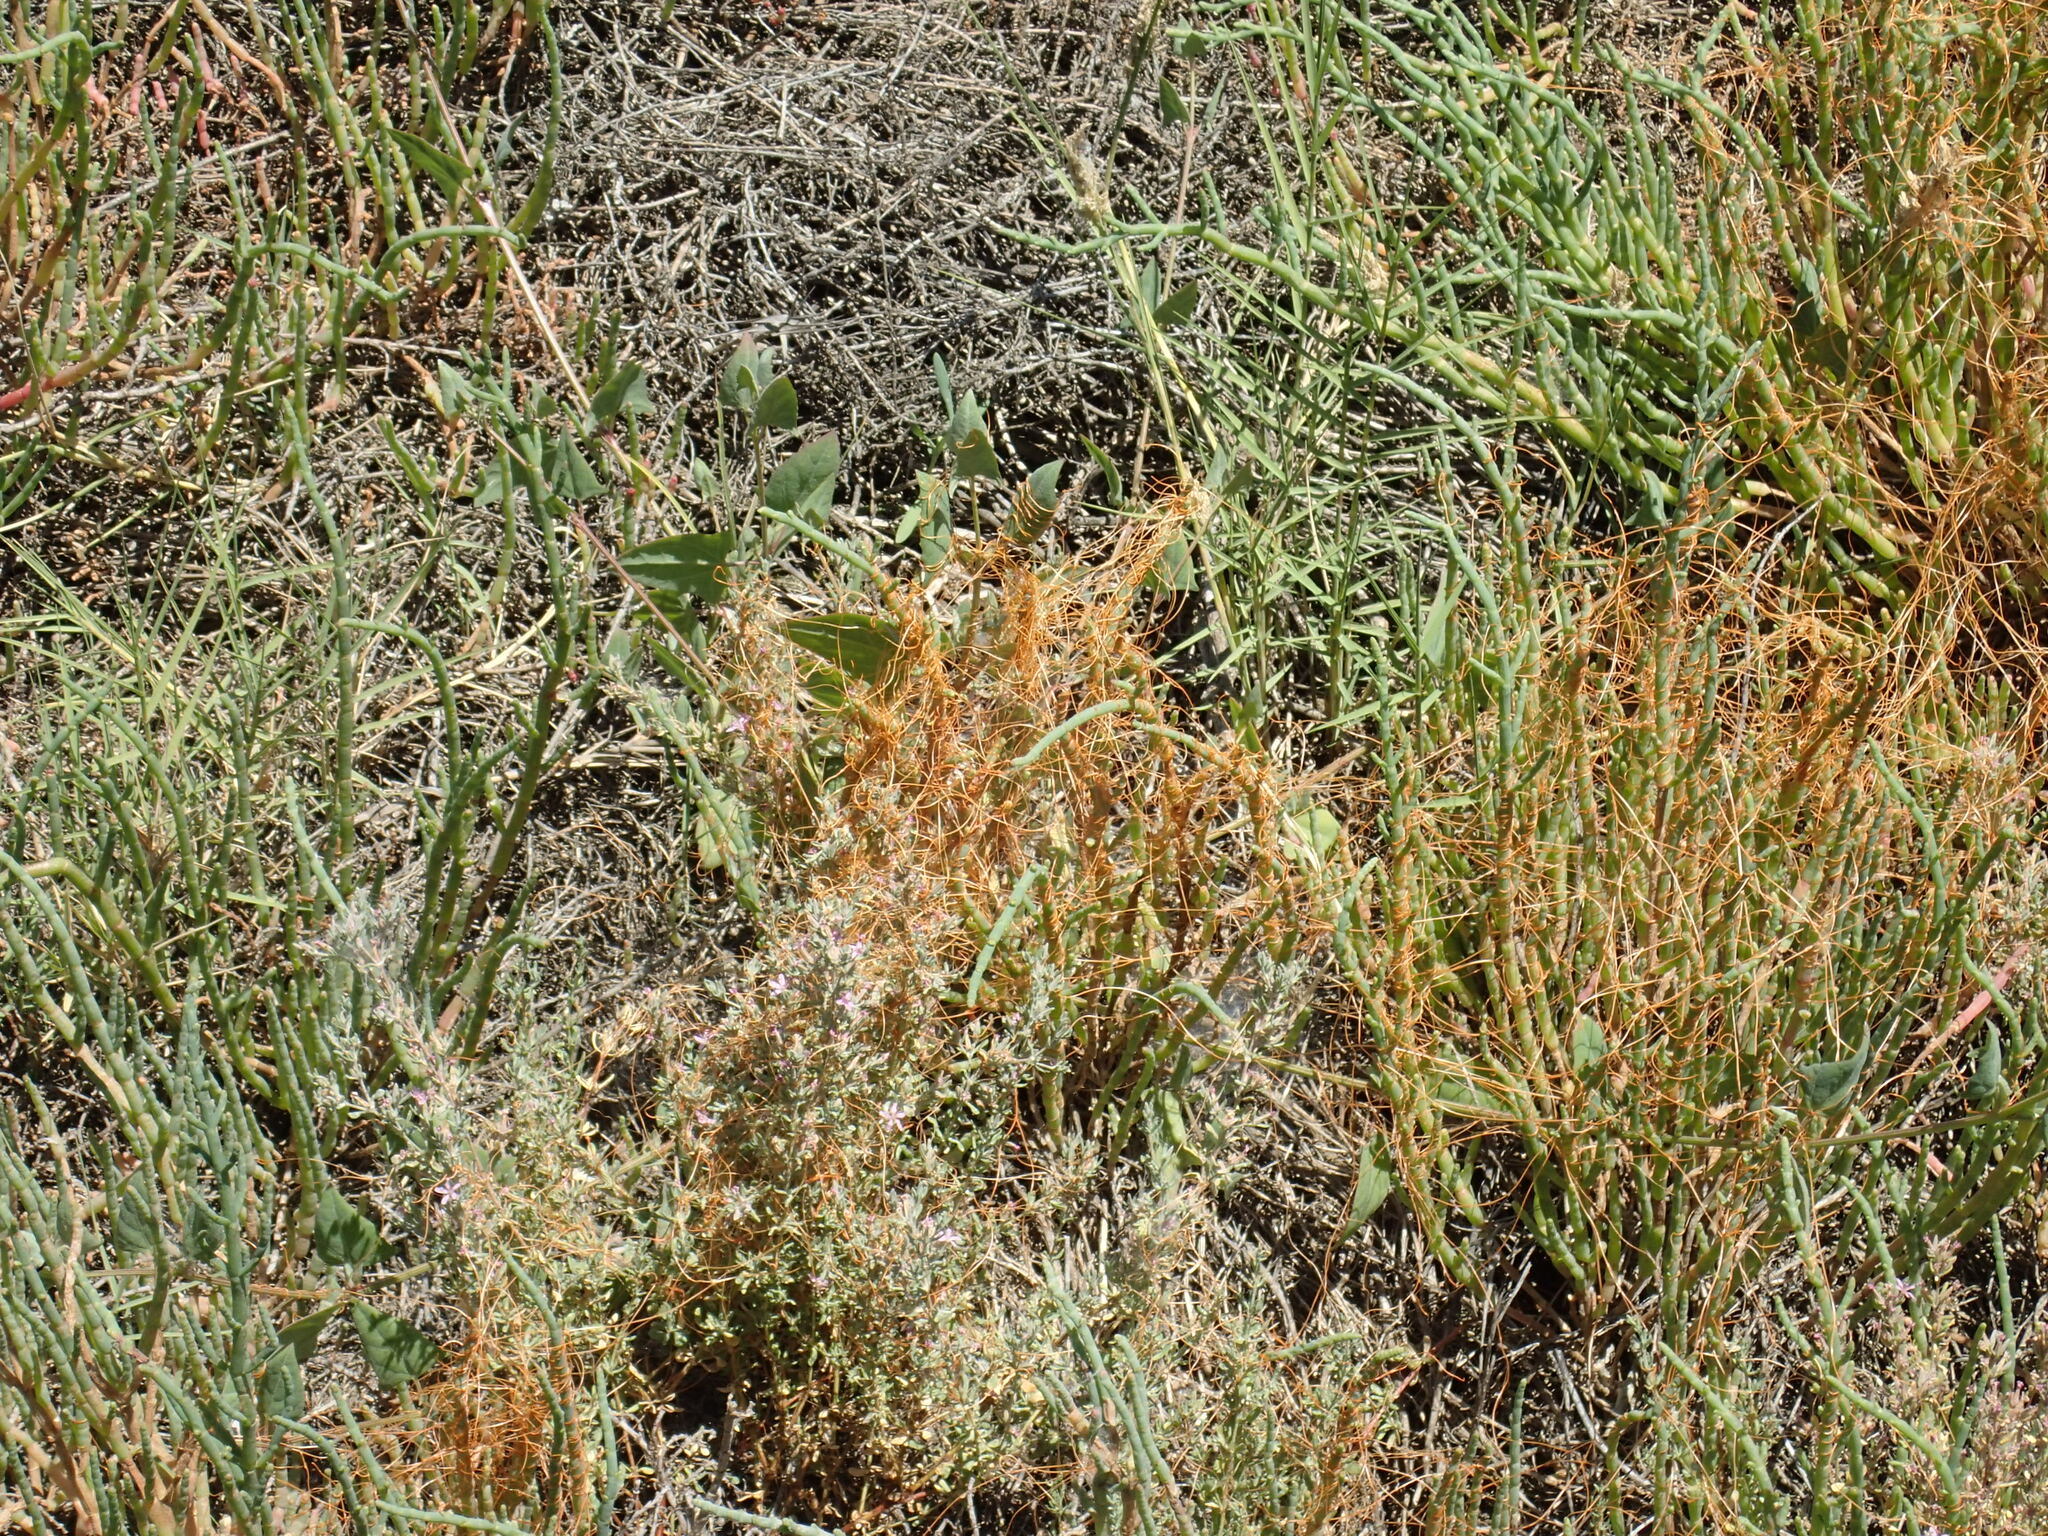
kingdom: Plantae
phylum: Tracheophyta
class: Magnoliopsida
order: Solanales
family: Convolvulaceae
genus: Cuscuta
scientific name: Cuscuta pacifica
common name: Large saltmarsh dodder
